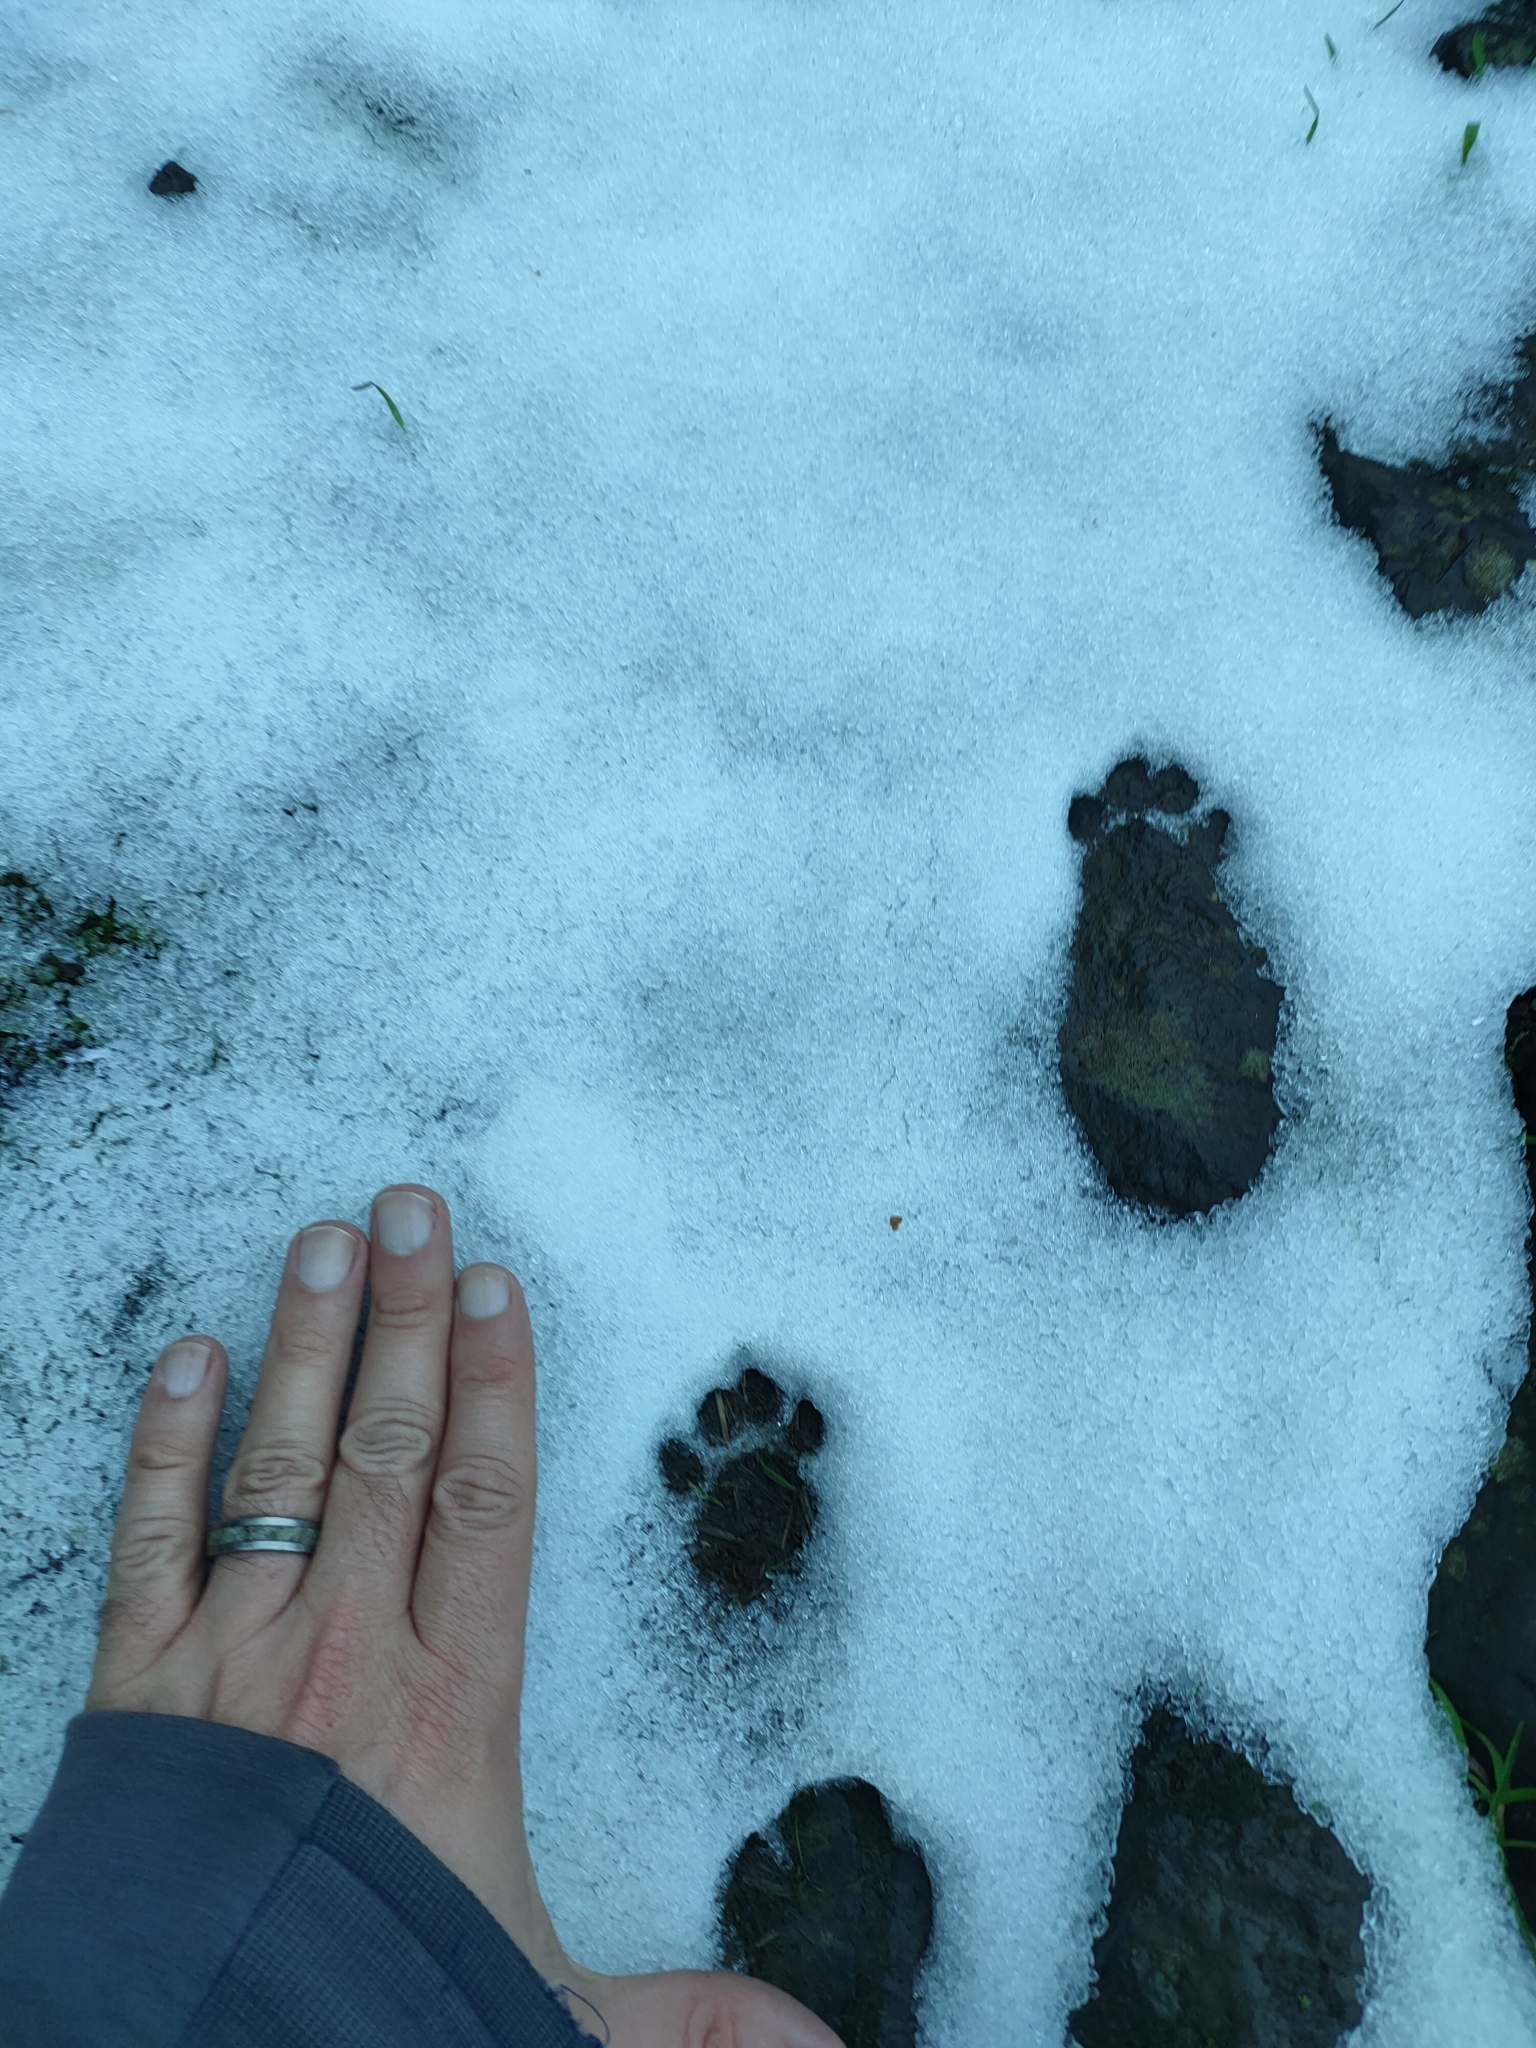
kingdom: Animalia
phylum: Chordata
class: Mammalia
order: Carnivora
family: Felidae
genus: Felis
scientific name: Felis catus
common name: Domestic cat
